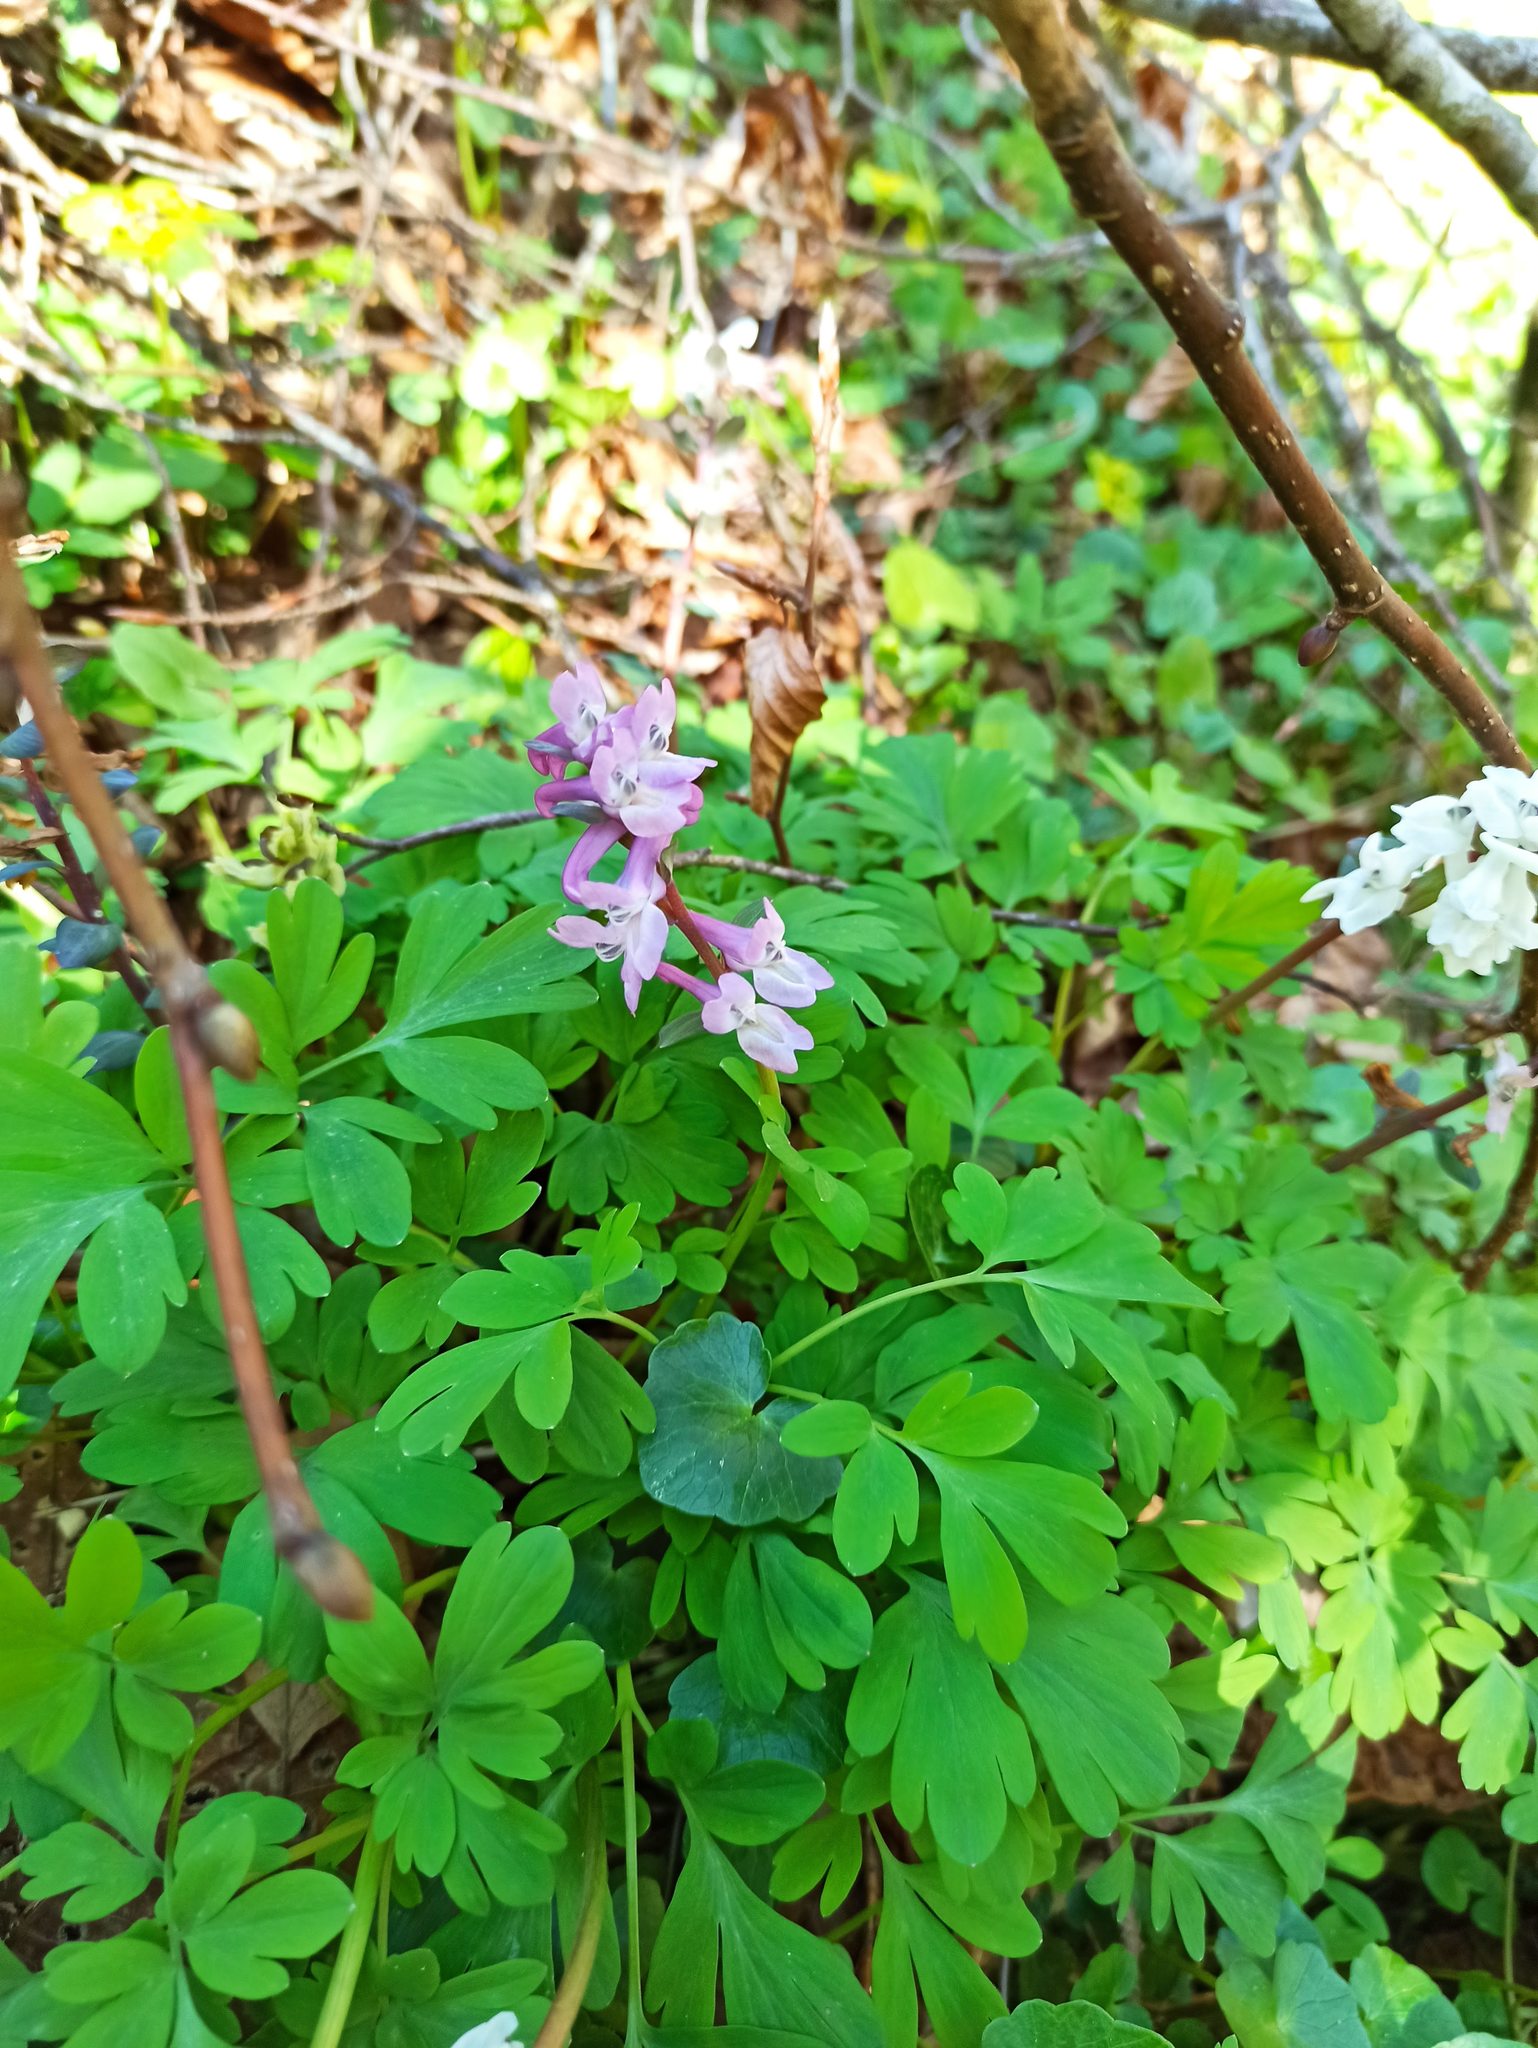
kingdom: Plantae
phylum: Tracheophyta
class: Magnoliopsida
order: Ranunculales
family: Papaveraceae
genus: Corydalis
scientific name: Corydalis cava
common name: Hollowroot
